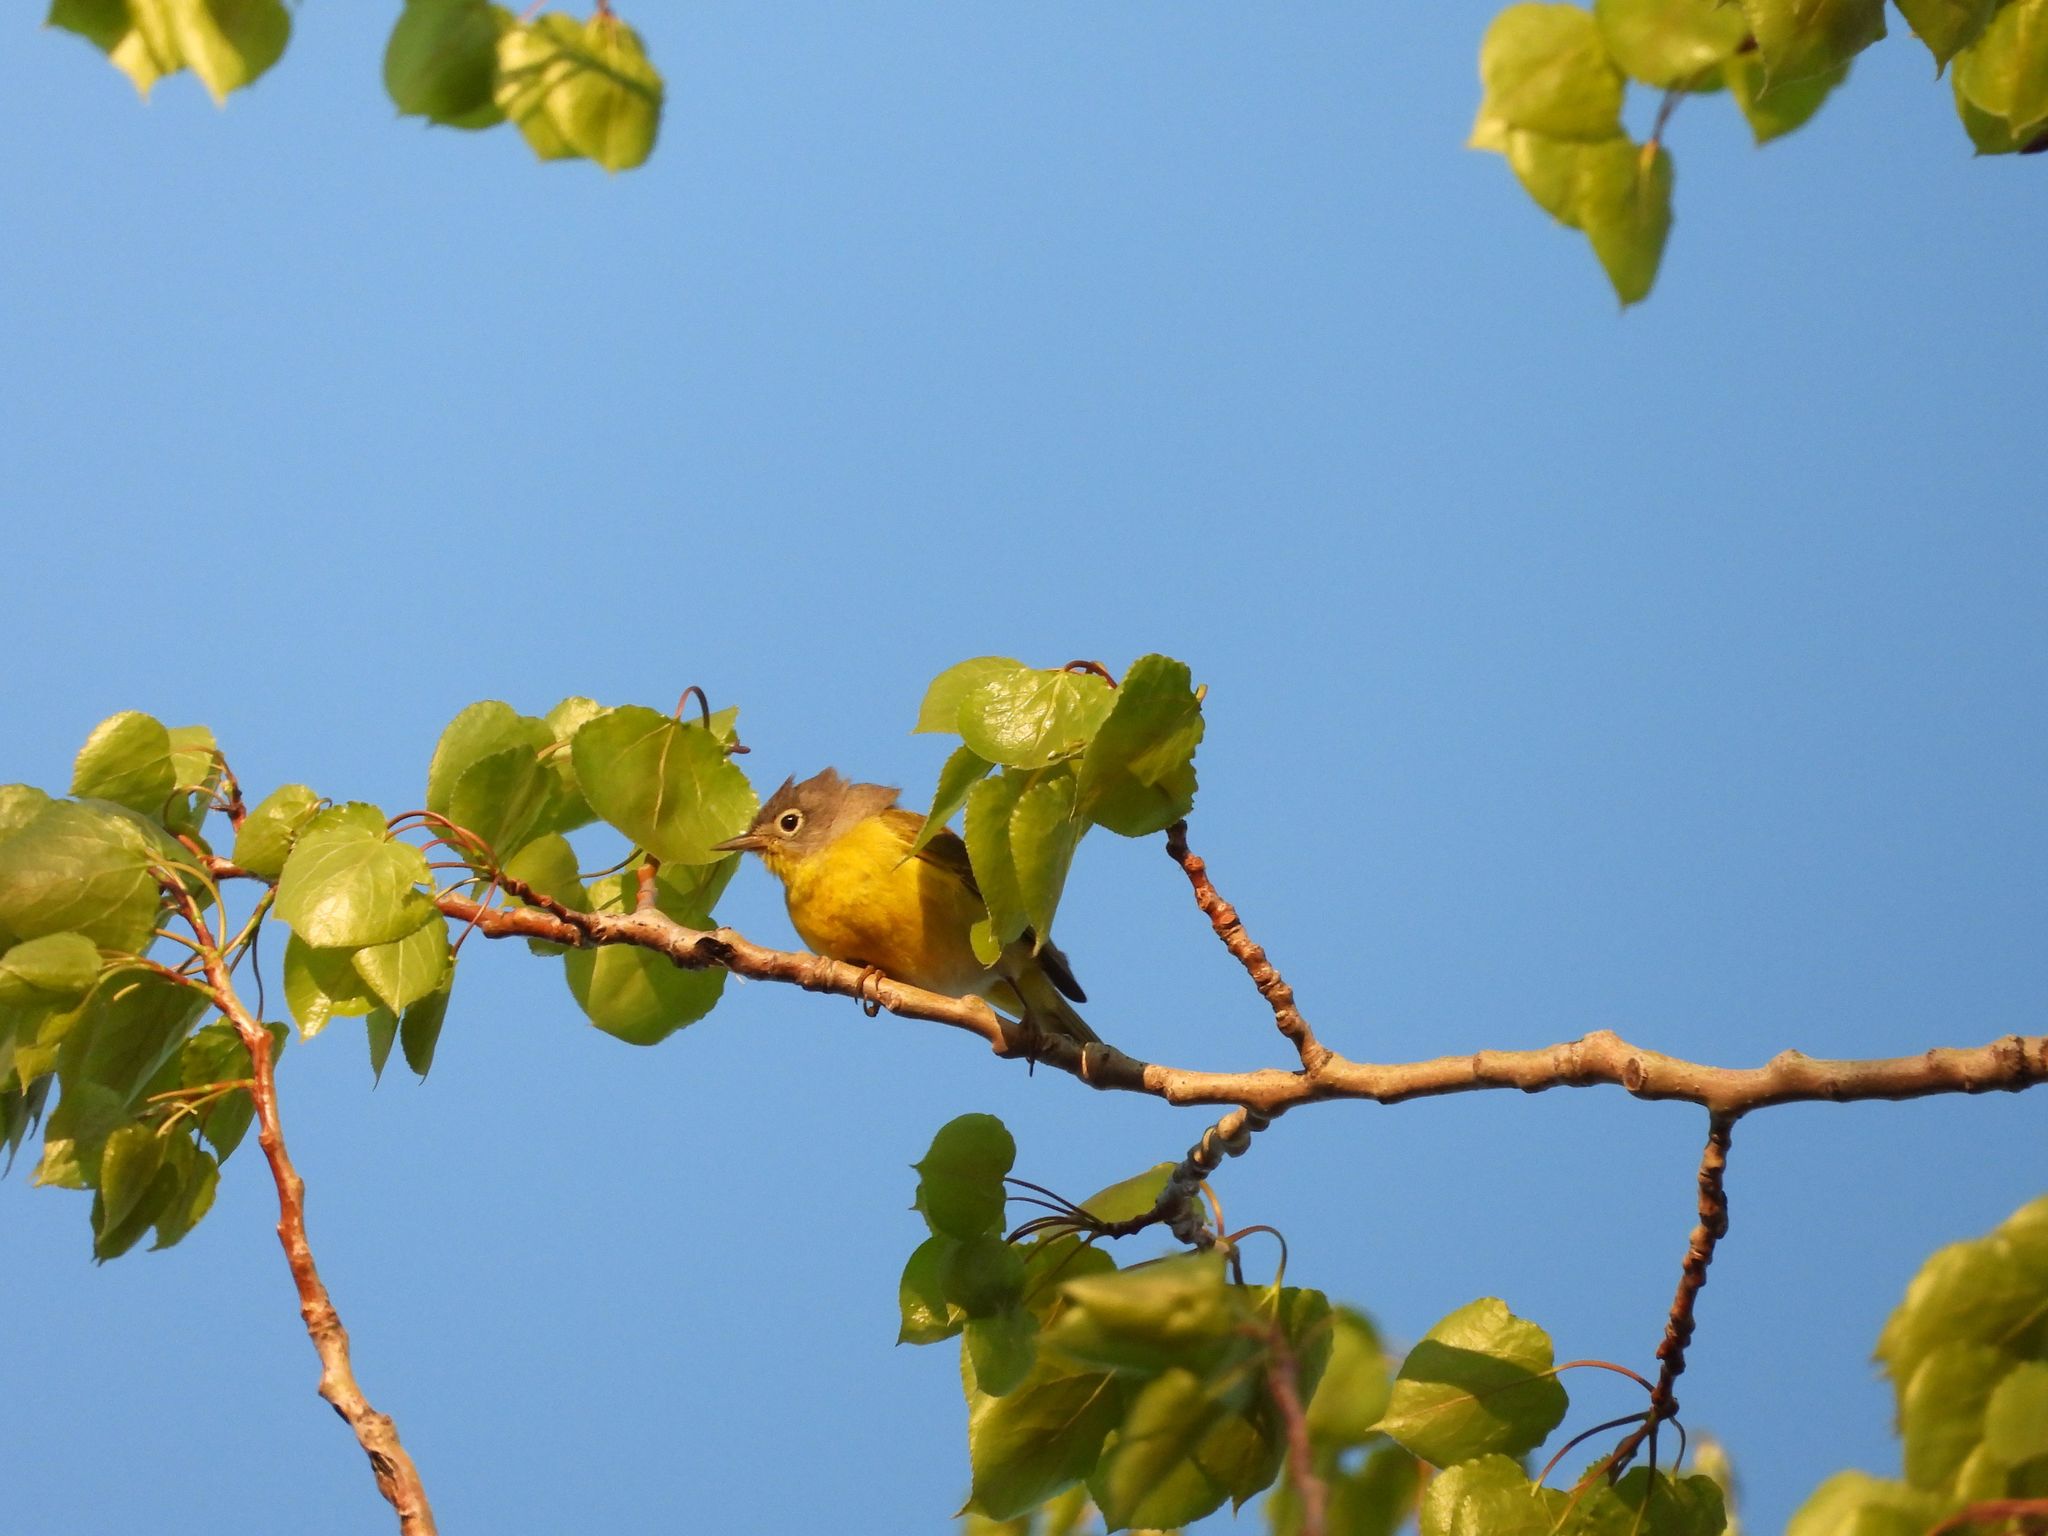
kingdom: Animalia
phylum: Chordata
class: Aves
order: Passeriformes
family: Parulidae
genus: Leiothlypis
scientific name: Leiothlypis ruficapilla
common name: Nashville warbler
